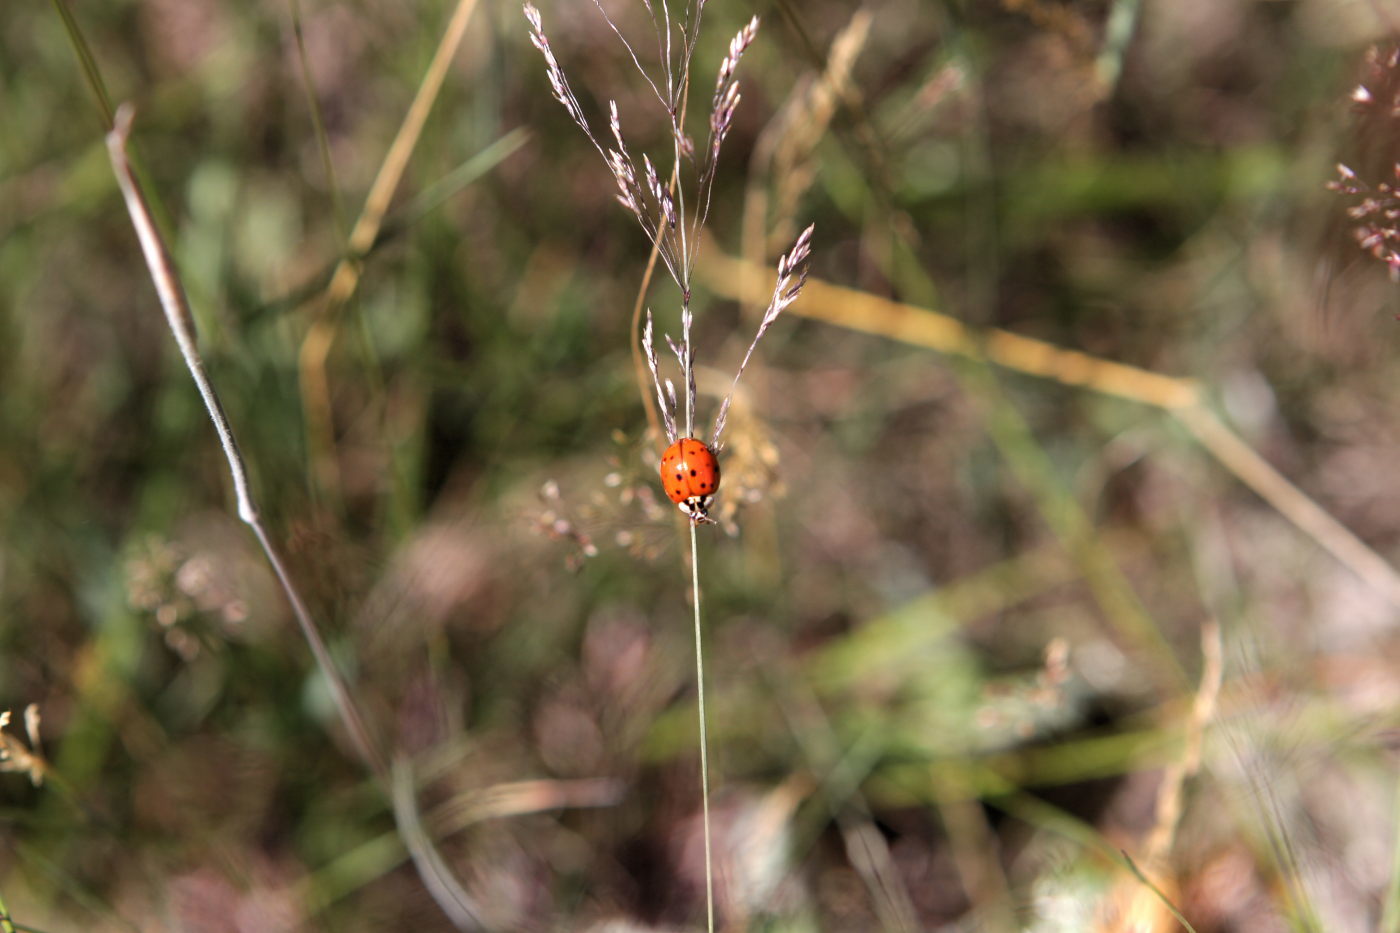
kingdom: Animalia
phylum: Arthropoda
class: Insecta
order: Coleoptera
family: Coccinellidae
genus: Harmonia
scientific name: Harmonia axyridis
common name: Harlequin ladybird
